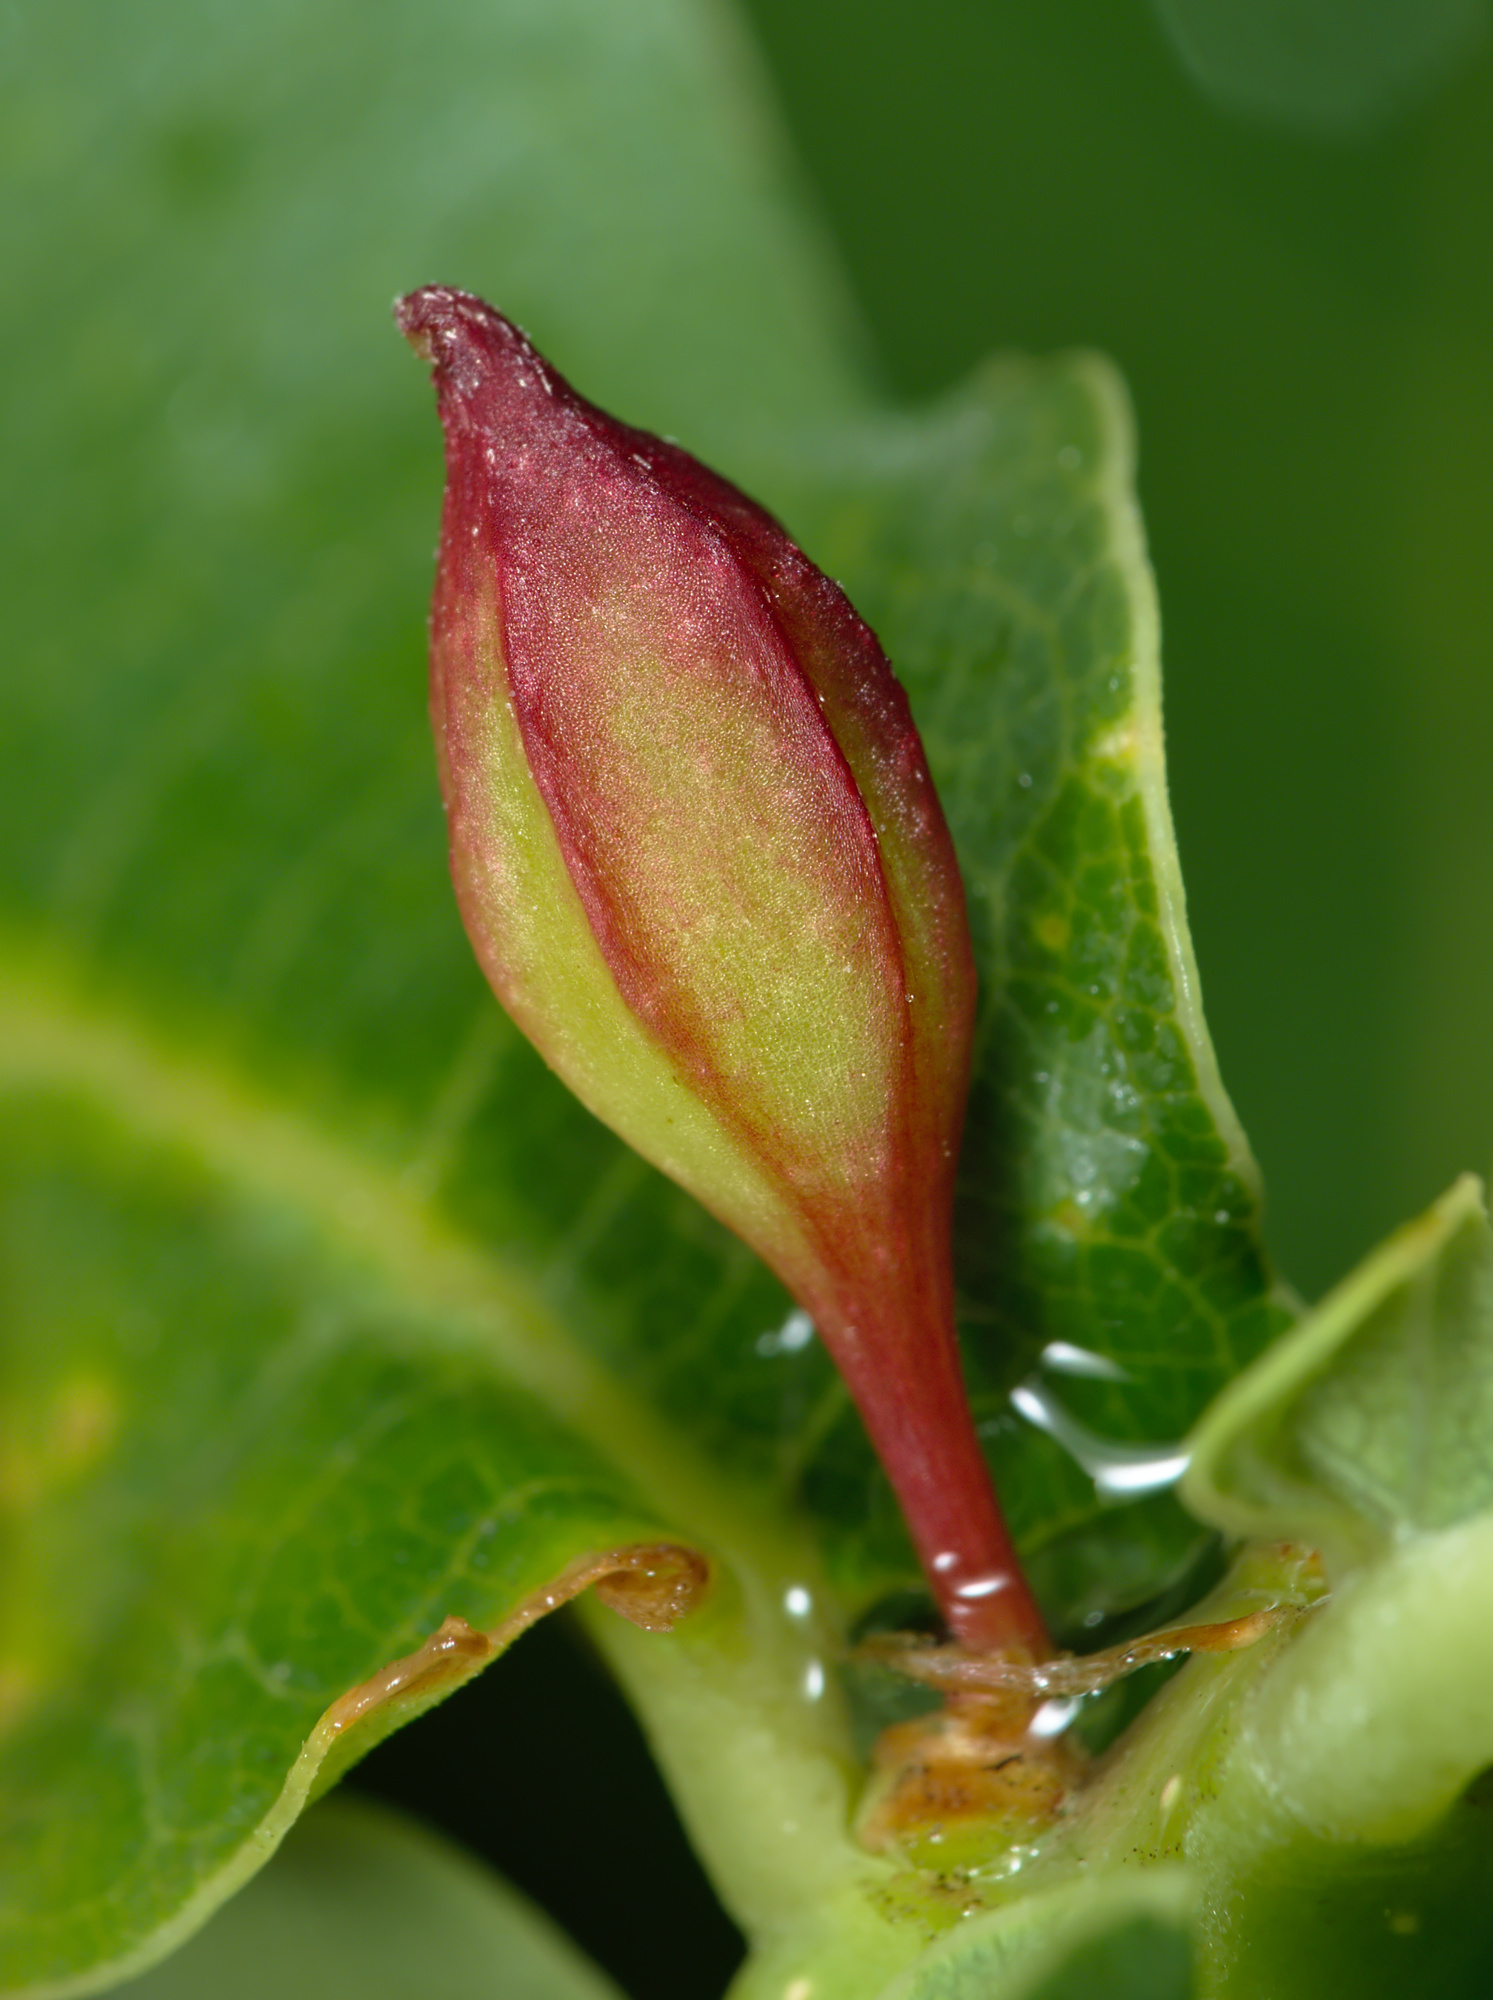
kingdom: Animalia
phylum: Arthropoda
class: Insecta
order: Hymenoptera
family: Cynipidae
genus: Andricus
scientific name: Andricus callidoma
